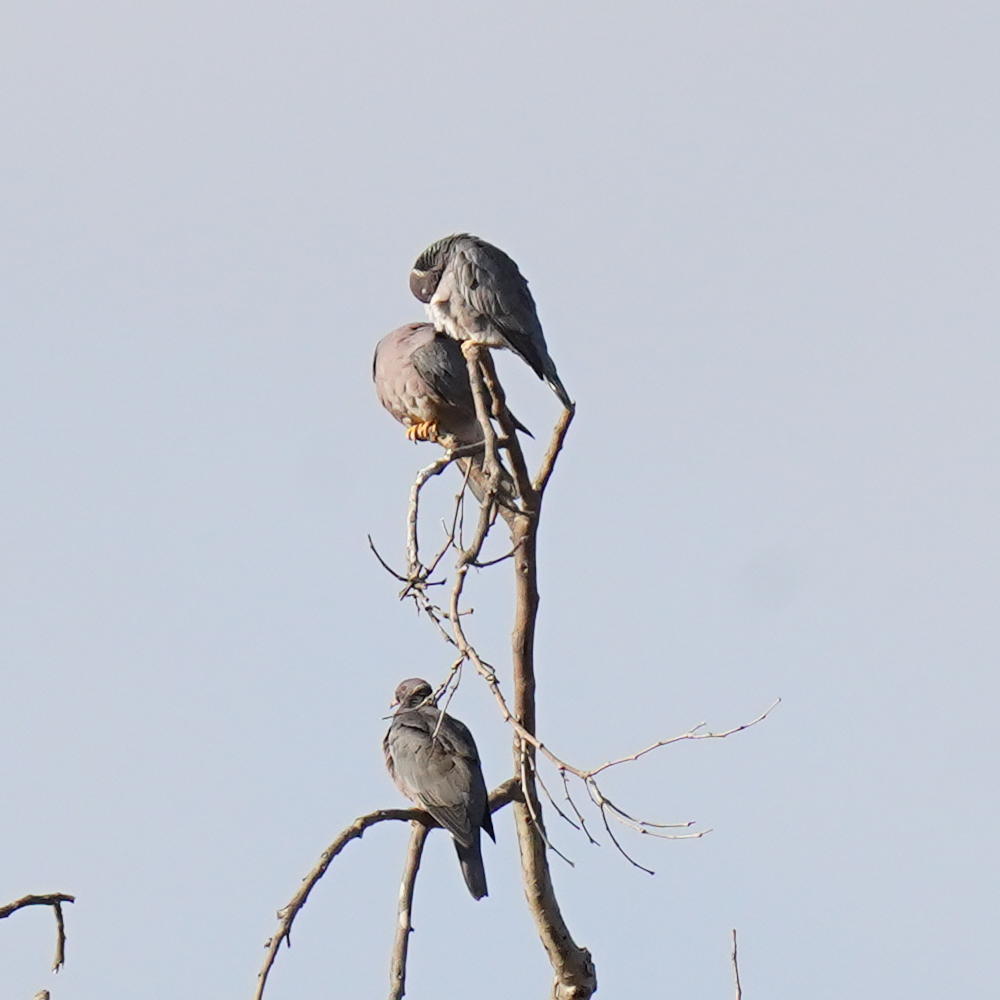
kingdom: Animalia
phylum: Chordata
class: Aves
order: Columbiformes
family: Columbidae
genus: Patagioenas
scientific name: Patagioenas fasciata
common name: Band-tailed pigeon
